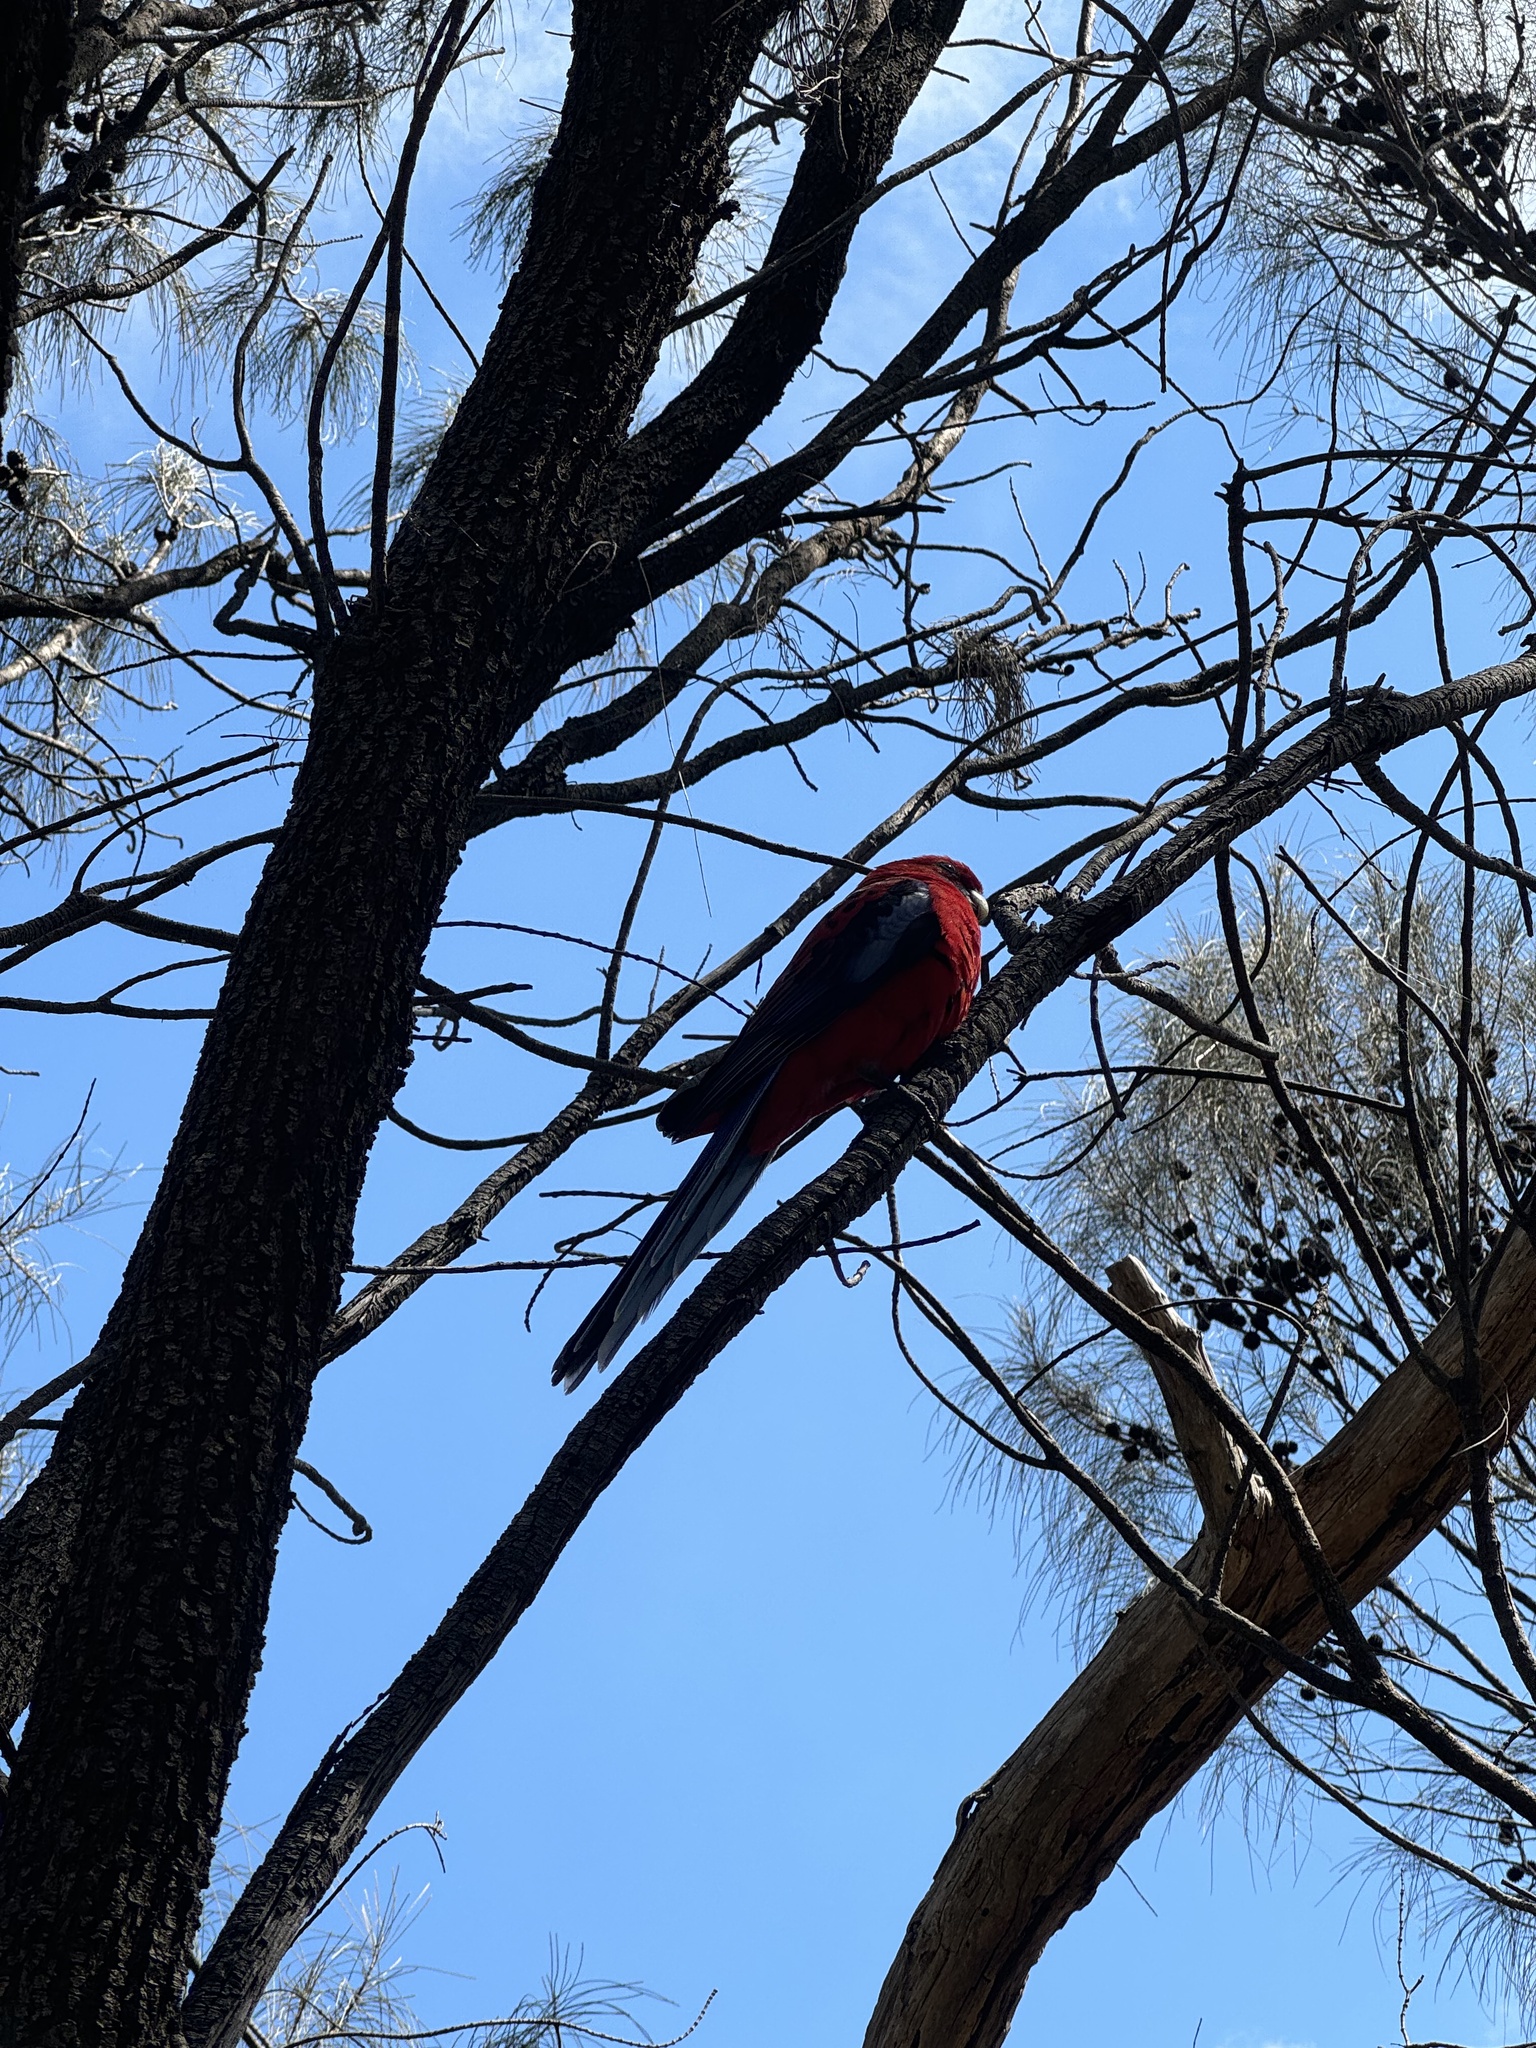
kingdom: Animalia
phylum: Chordata
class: Aves
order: Psittaciformes
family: Psittacidae
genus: Platycercus
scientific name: Platycercus elegans
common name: Crimson rosella
